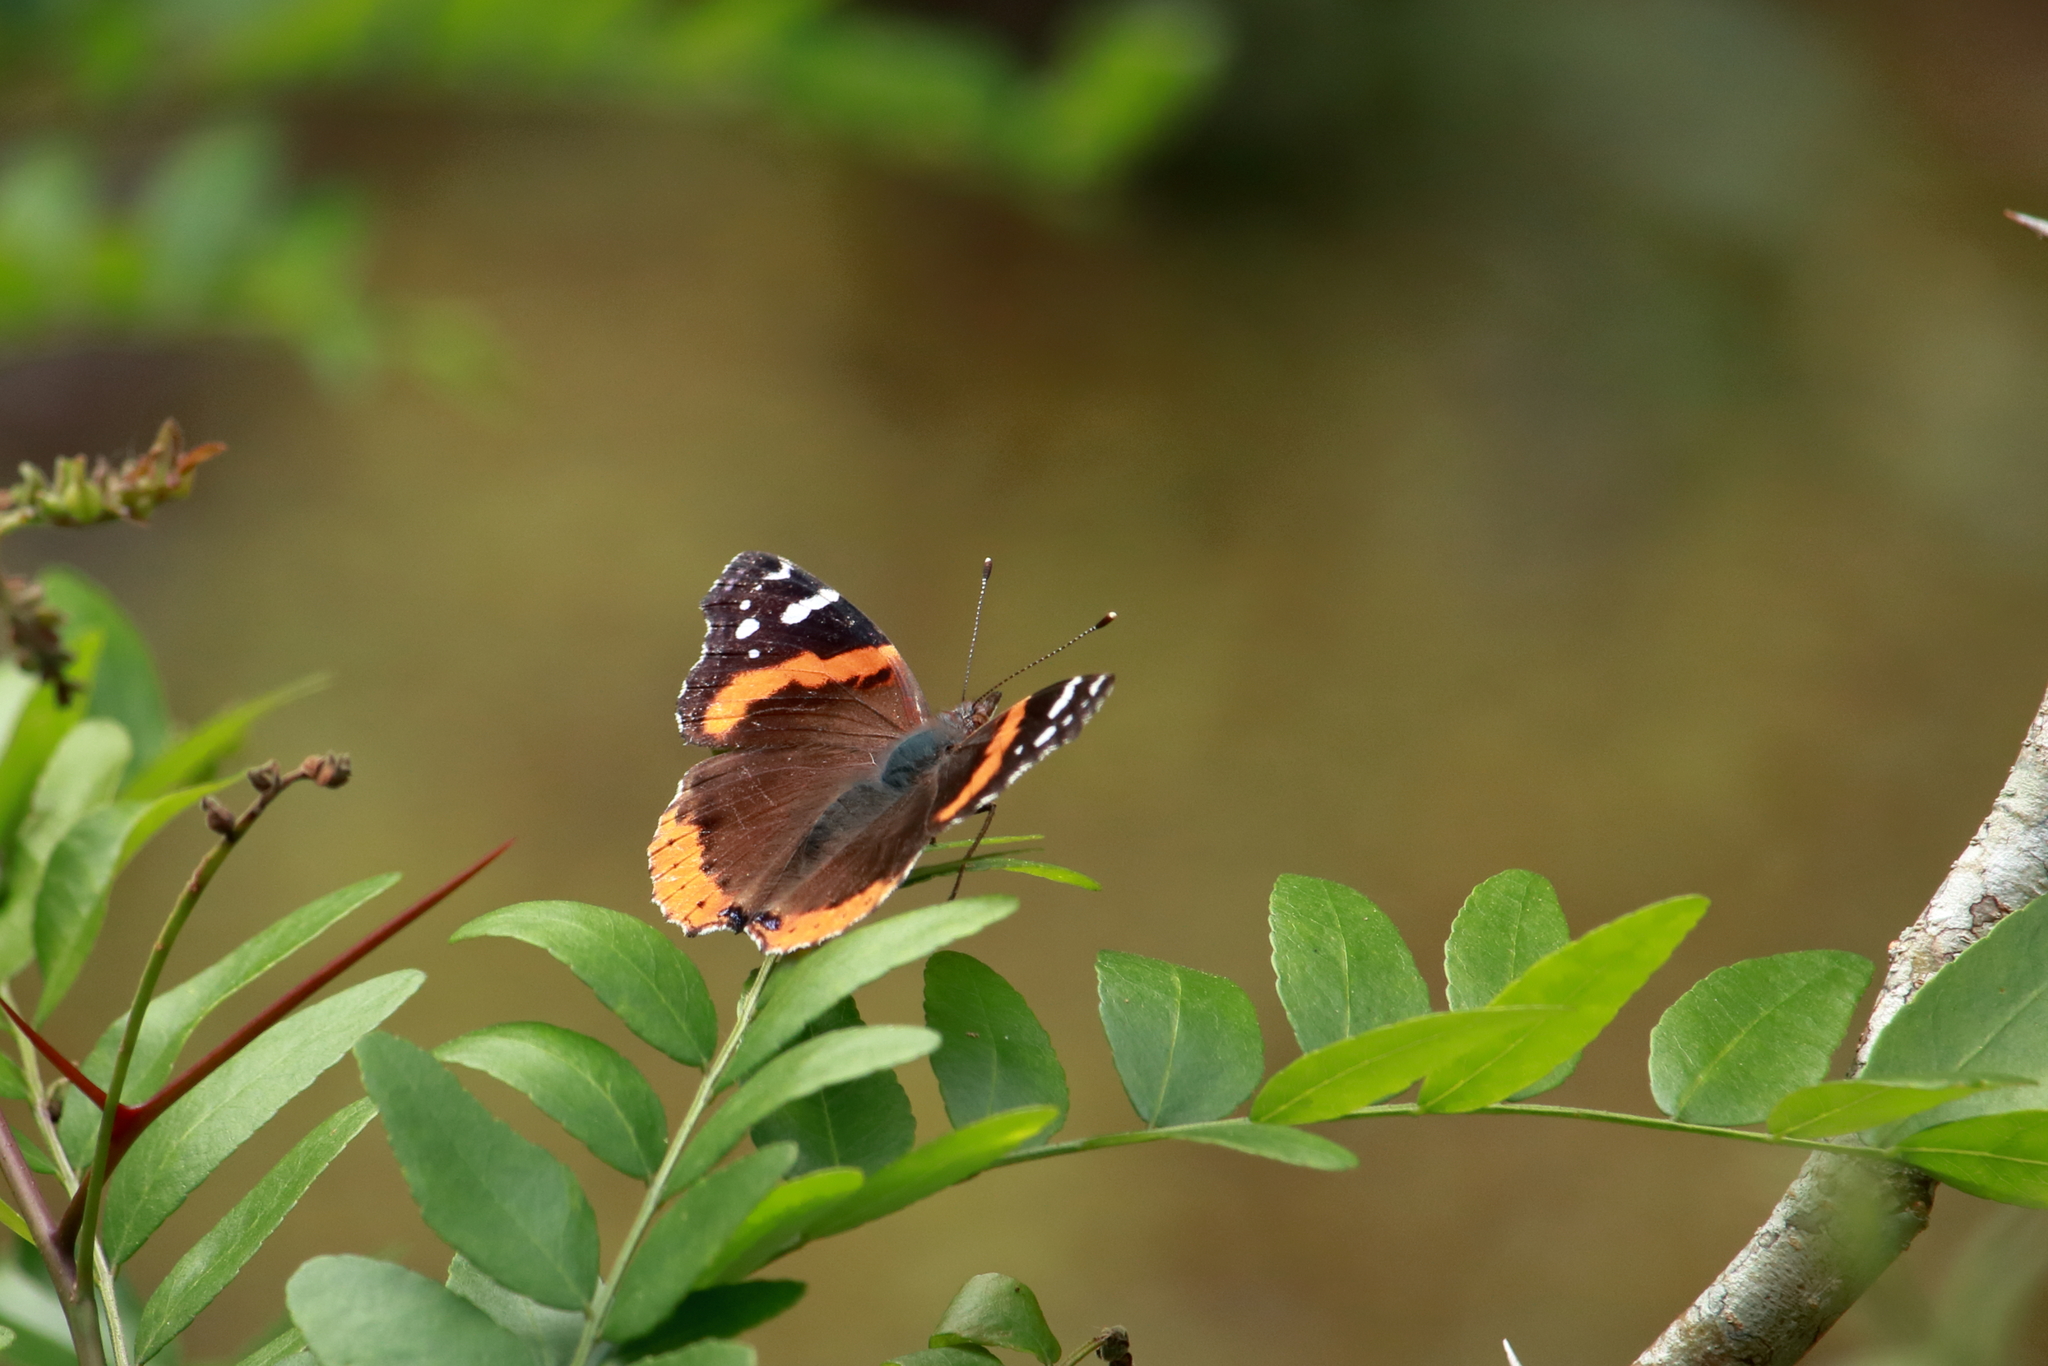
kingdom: Animalia
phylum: Arthropoda
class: Insecta
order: Lepidoptera
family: Nymphalidae
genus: Vanessa
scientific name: Vanessa atalanta
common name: Red admiral
